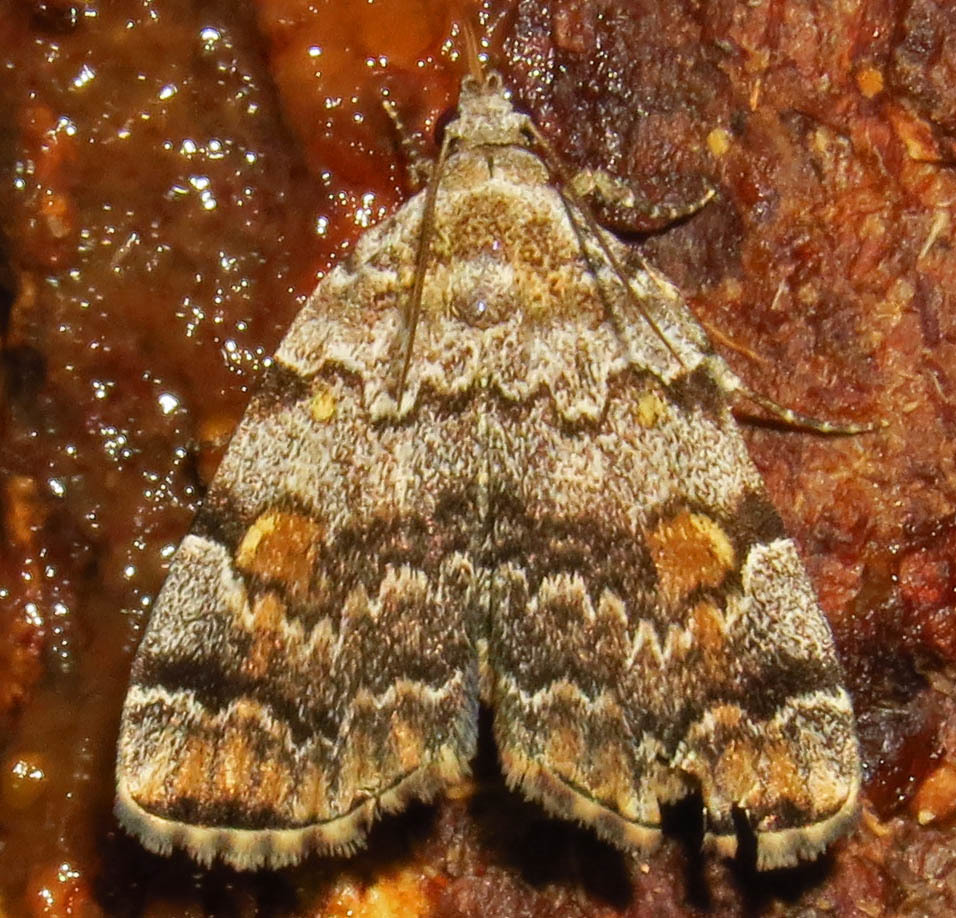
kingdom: Animalia
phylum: Arthropoda
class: Insecta
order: Lepidoptera
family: Erebidae
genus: Idia
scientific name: Idia americalis
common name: American idia moth
